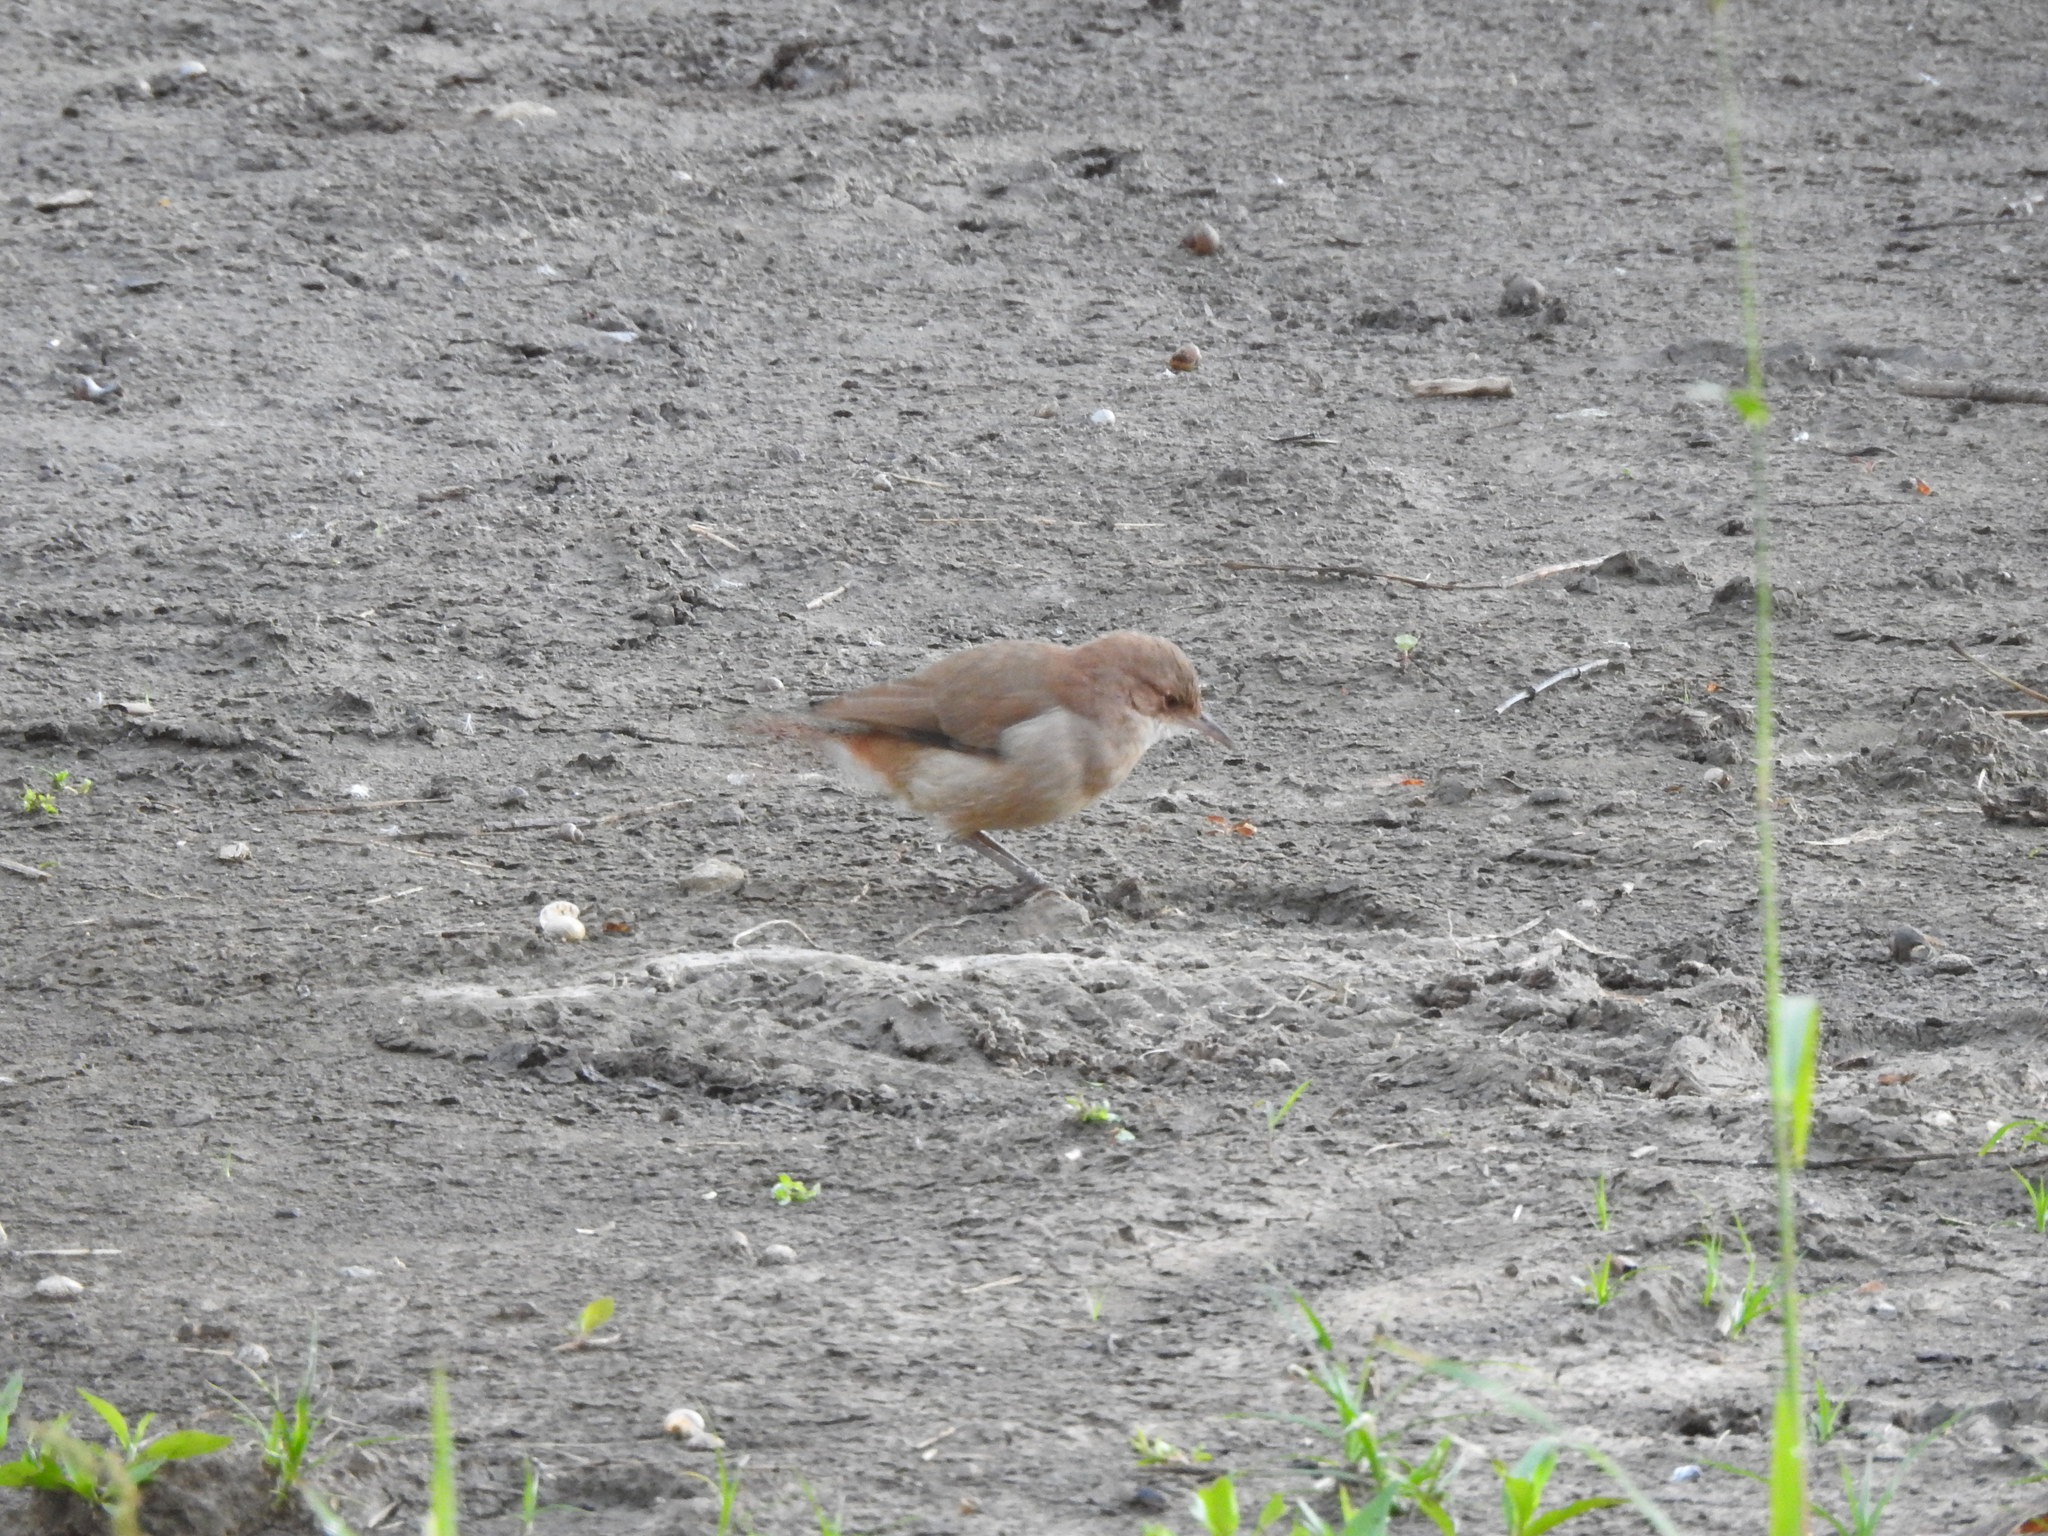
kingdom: Animalia
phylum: Chordata
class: Aves
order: Passeriformes
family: Furnariidae
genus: Furnarius
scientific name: Furnarius rufus
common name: Rufous hornero
